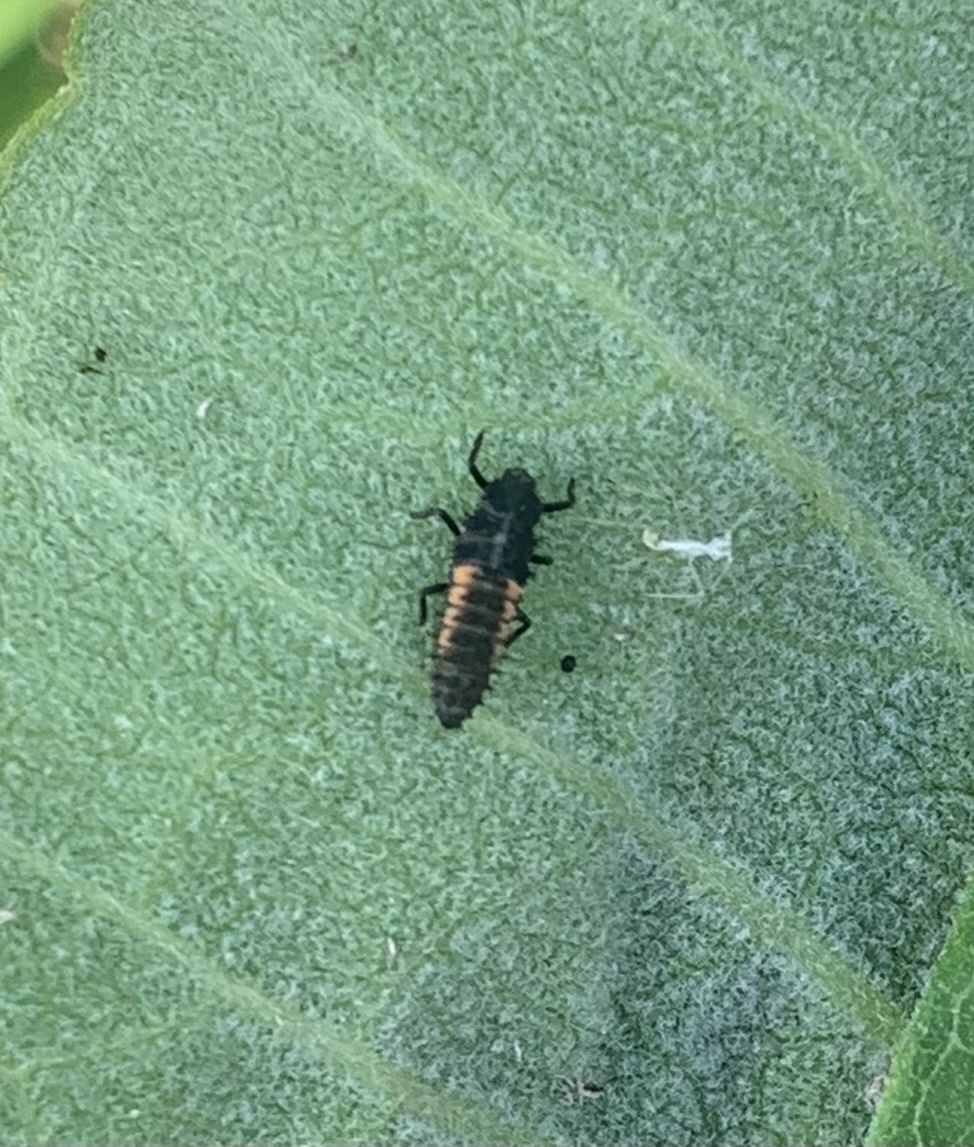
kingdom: Animalia
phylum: Arthropoda
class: Insecta
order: Coleoptera
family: Coccinellidae
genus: Harmonia
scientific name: Harmonia axyridis
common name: Harlequin ladybird
